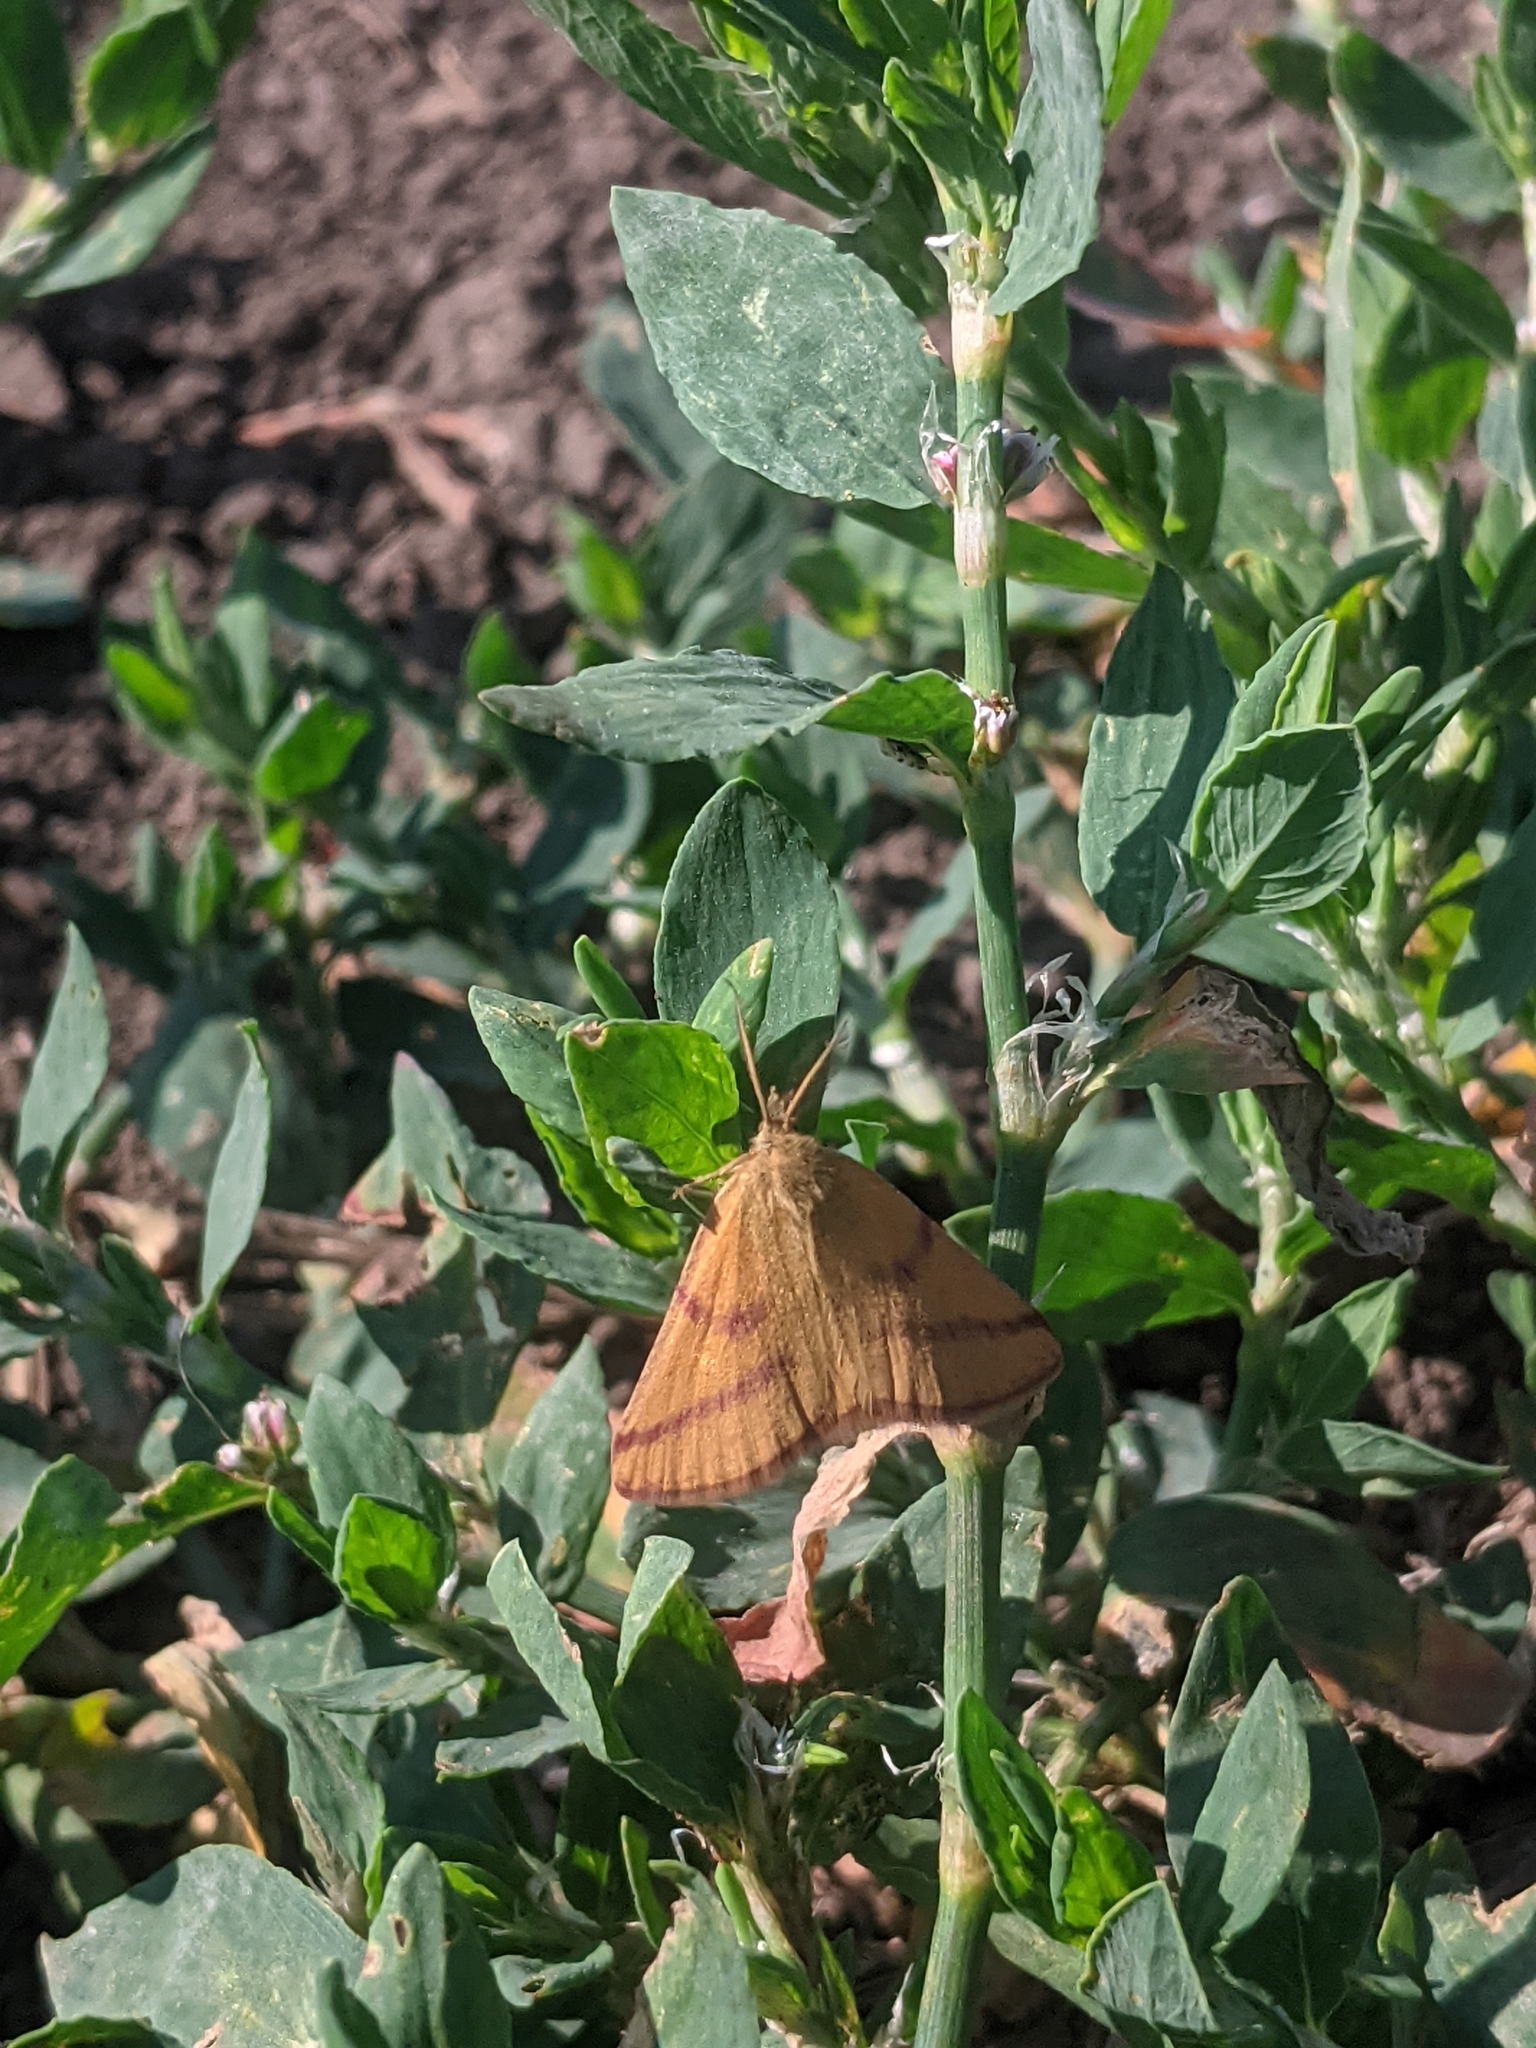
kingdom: Animalia
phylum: Arthropoda
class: Insecta
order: Lepidoptera
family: Geometridae
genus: Lythria
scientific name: Lythria purpuraria
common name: Purple-barred yellow
